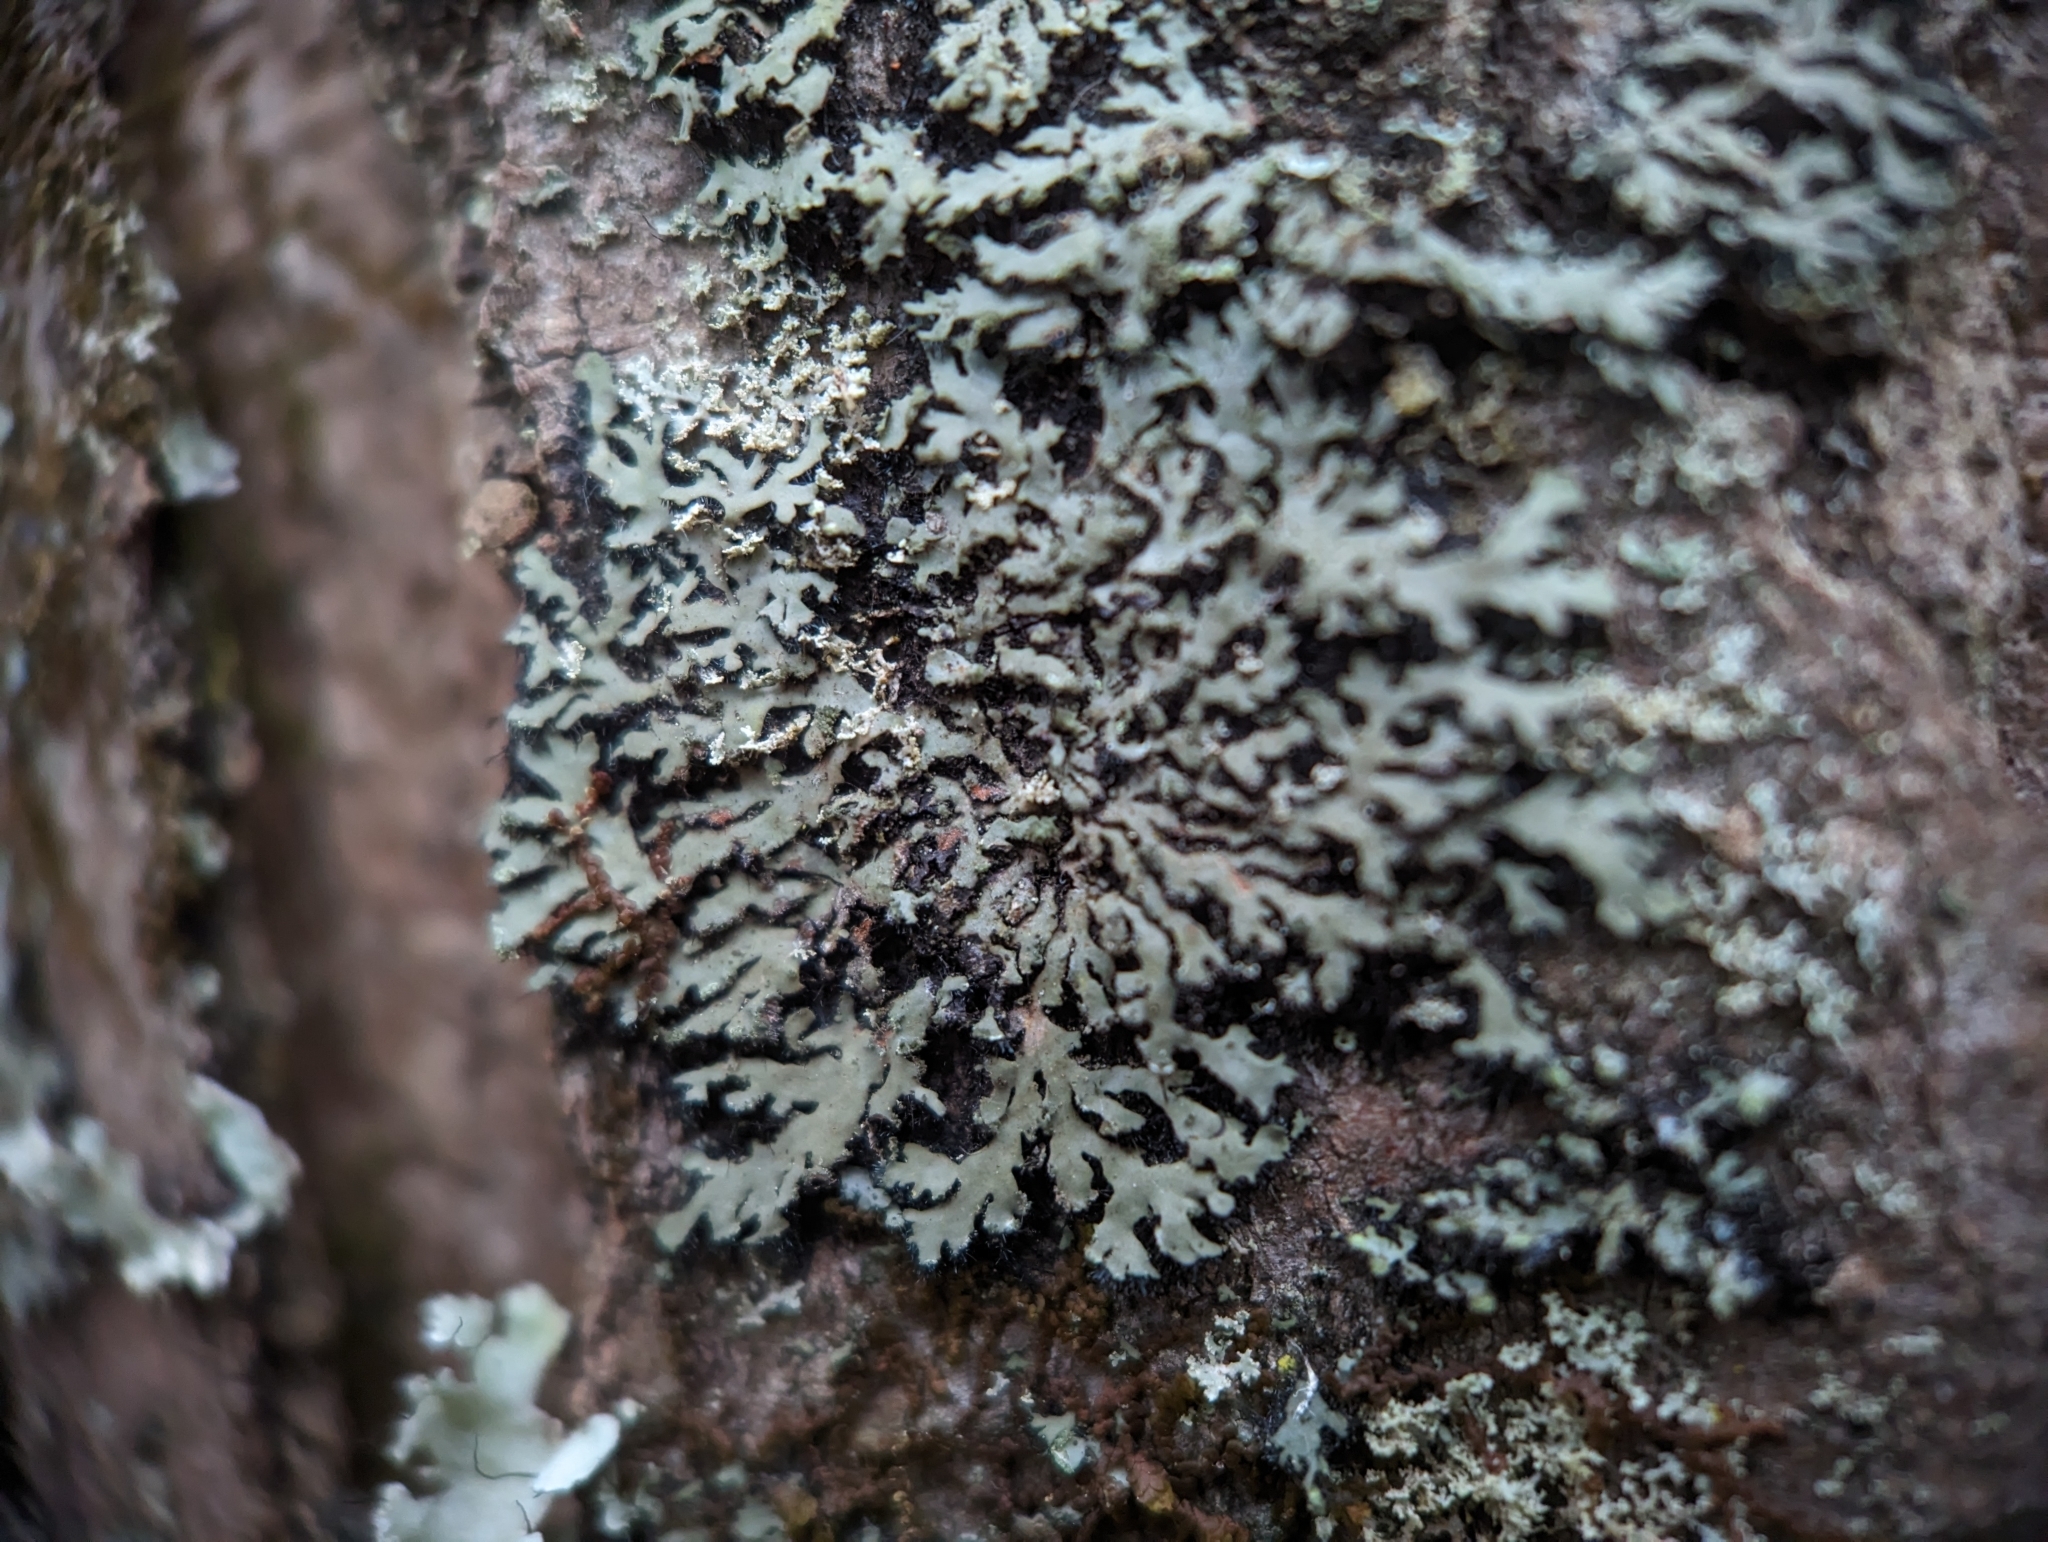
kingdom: Fungi
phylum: Ascomycota
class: Lecanoromycetes
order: Caliciales
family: Physciaceae
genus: Phaeophyscia
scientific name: Phaeophyscia rubropulchra
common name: Orange-cored shadow lichen
